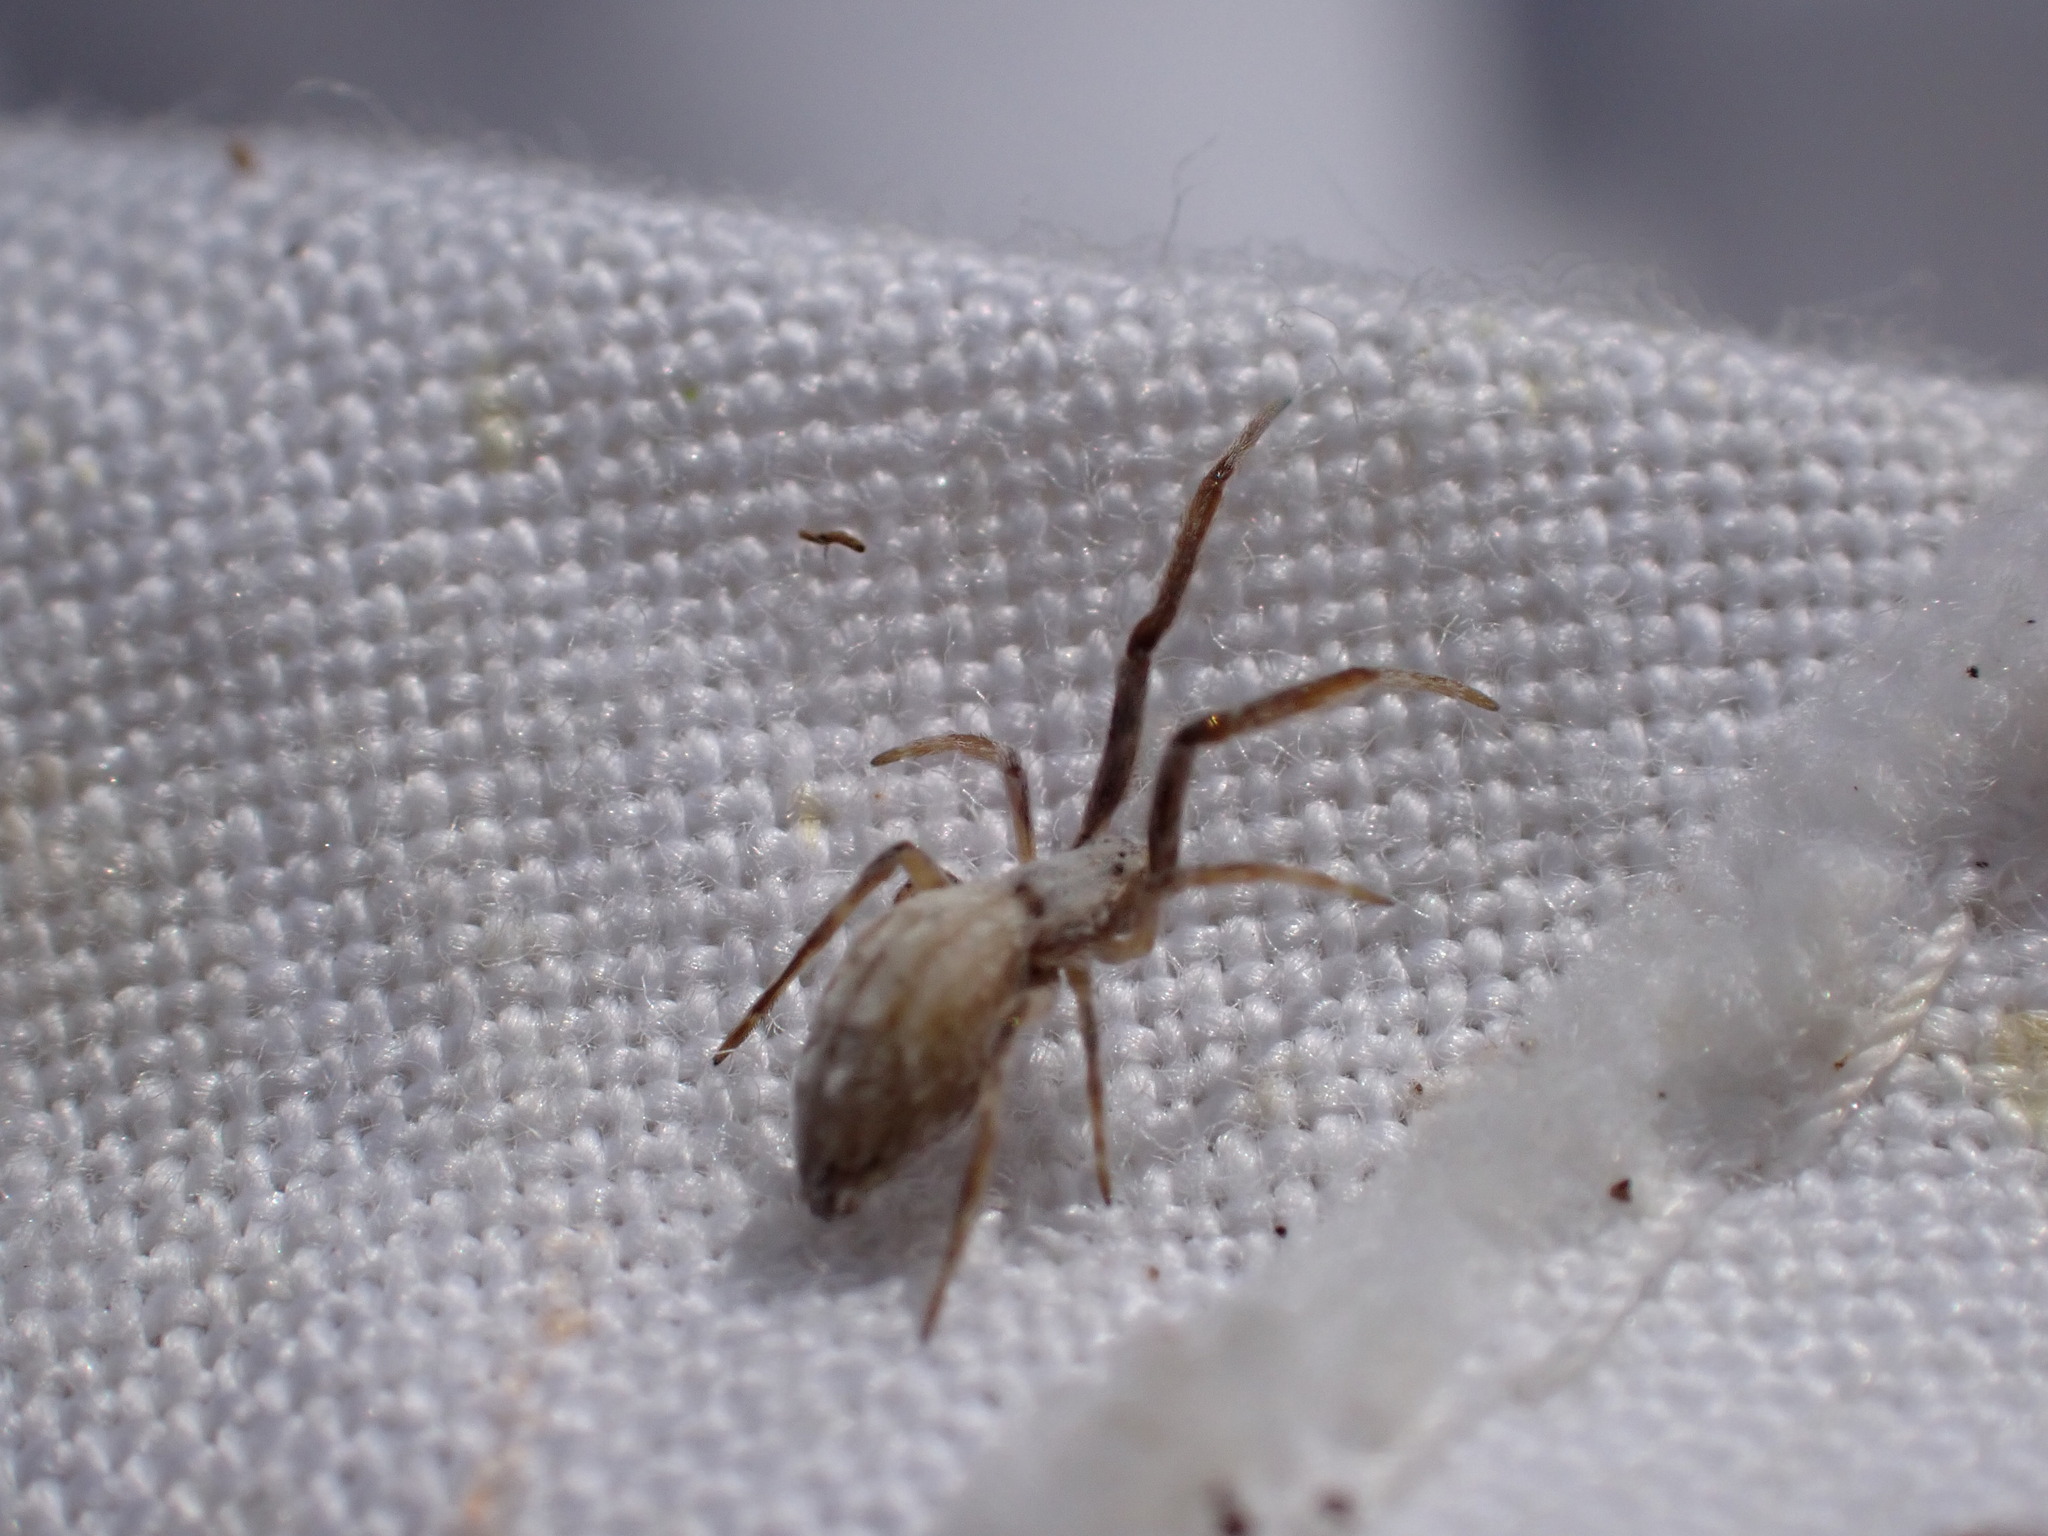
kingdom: Animalia
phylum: Arthropoda
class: Arachnida
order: Araneae
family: Uloboridae
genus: Uloborus
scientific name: Uloborus walckenaerius
